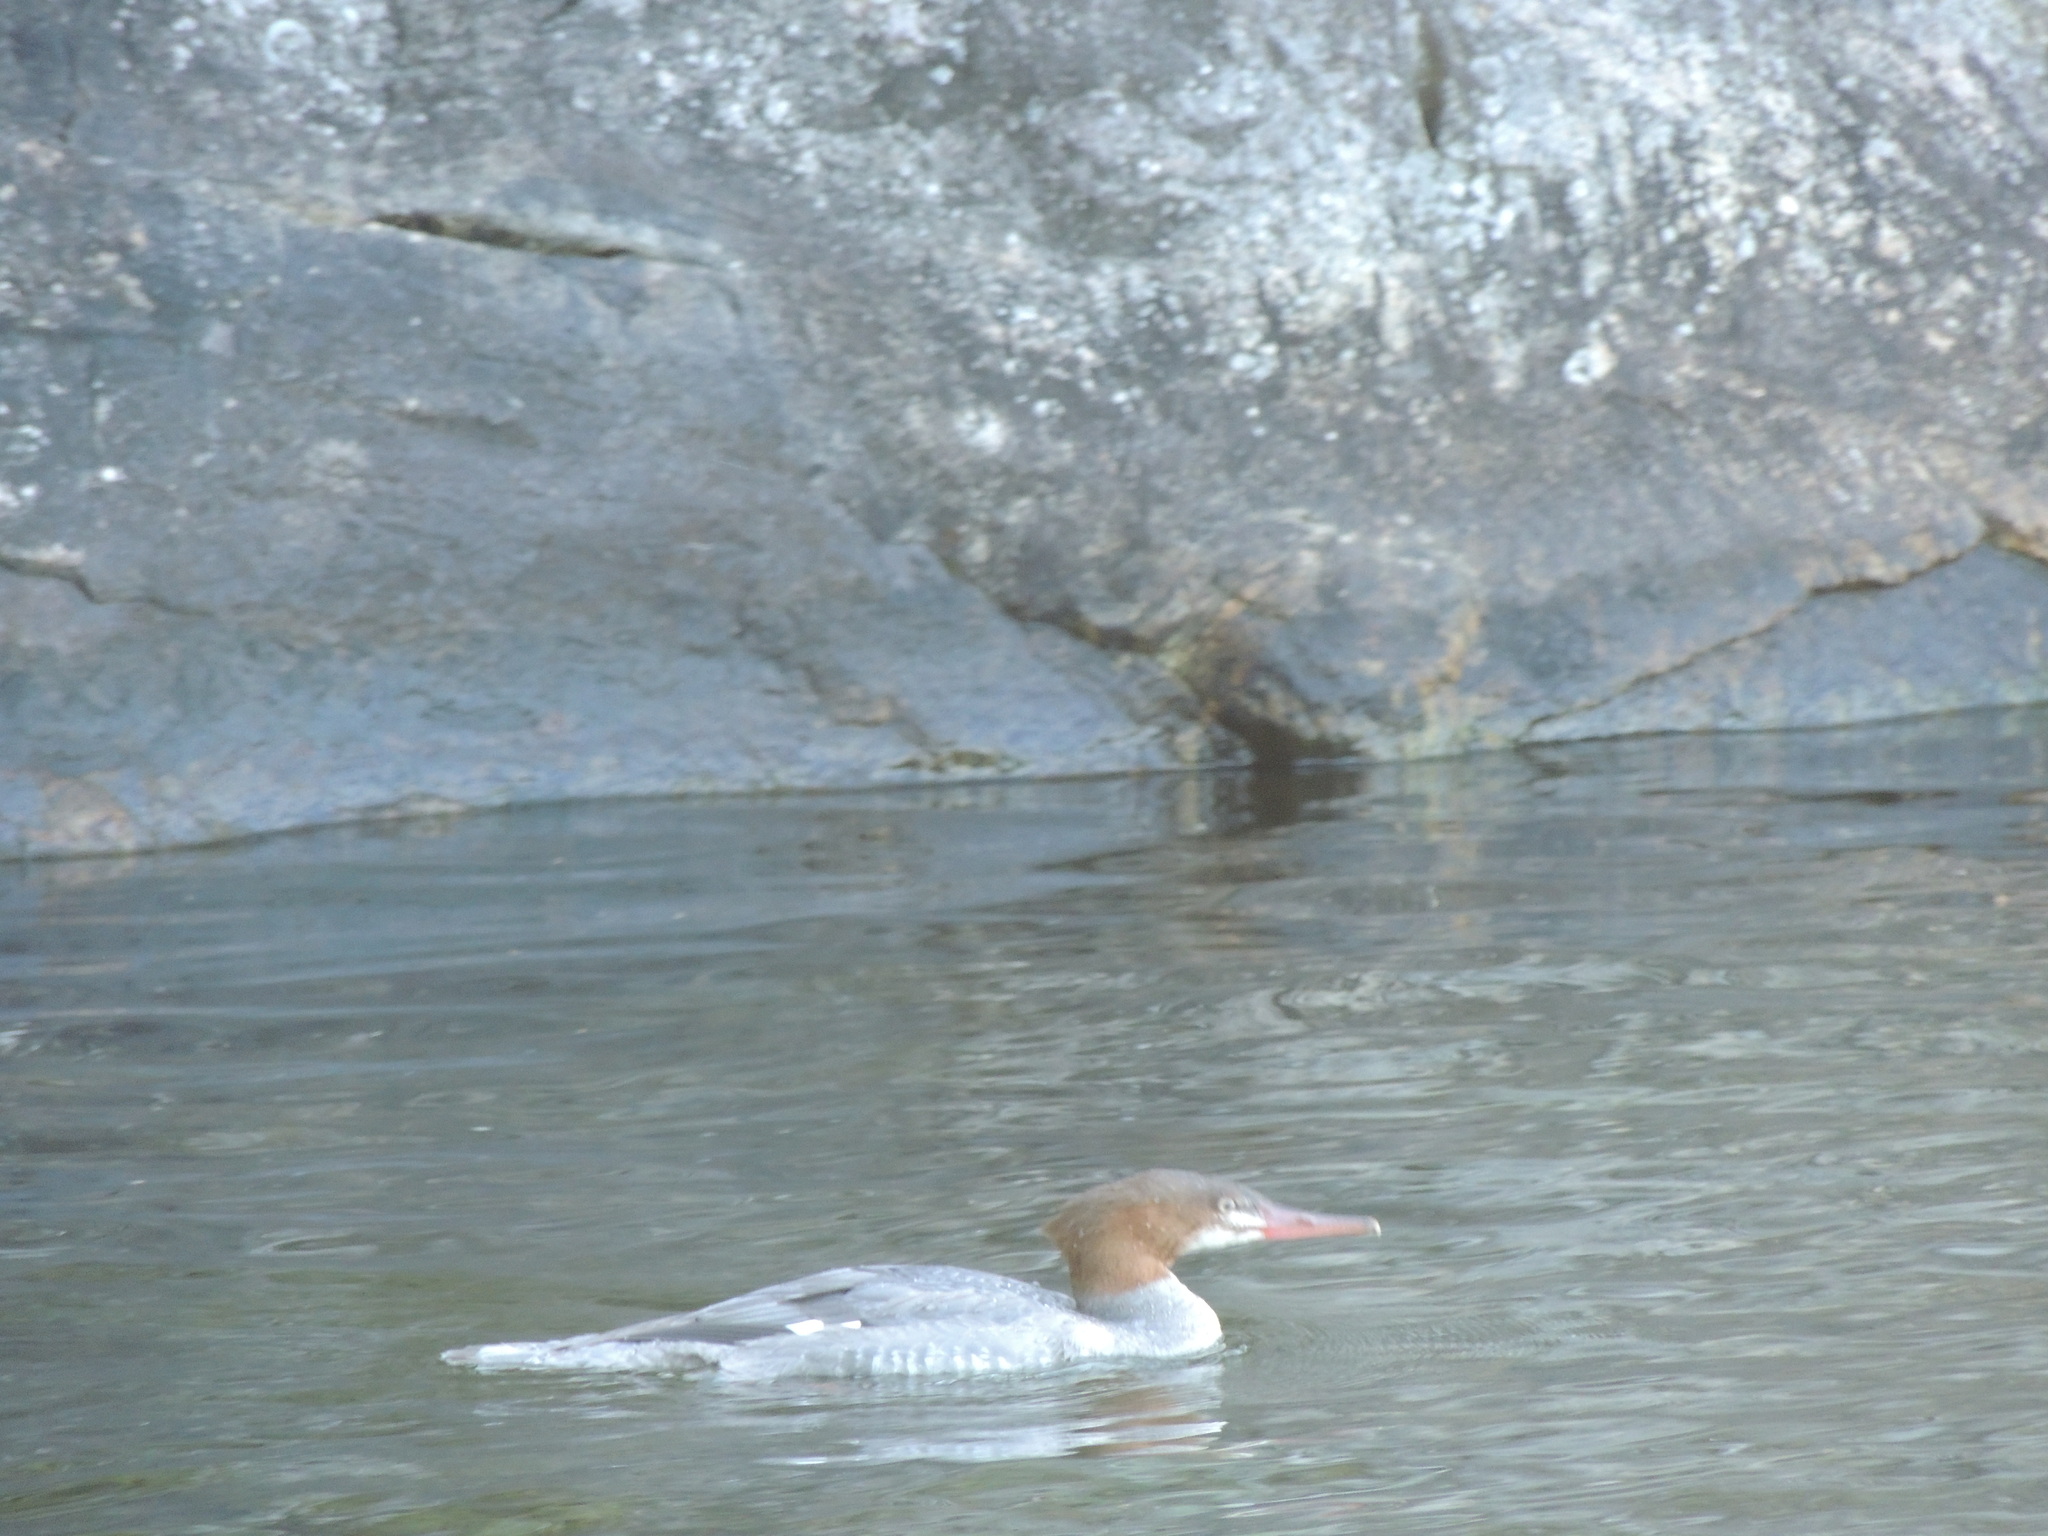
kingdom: Animalia
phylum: Chordata
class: Aves
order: Anseriformes
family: Anatidae
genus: Mergus
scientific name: Mergus merganser
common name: Common merganser
